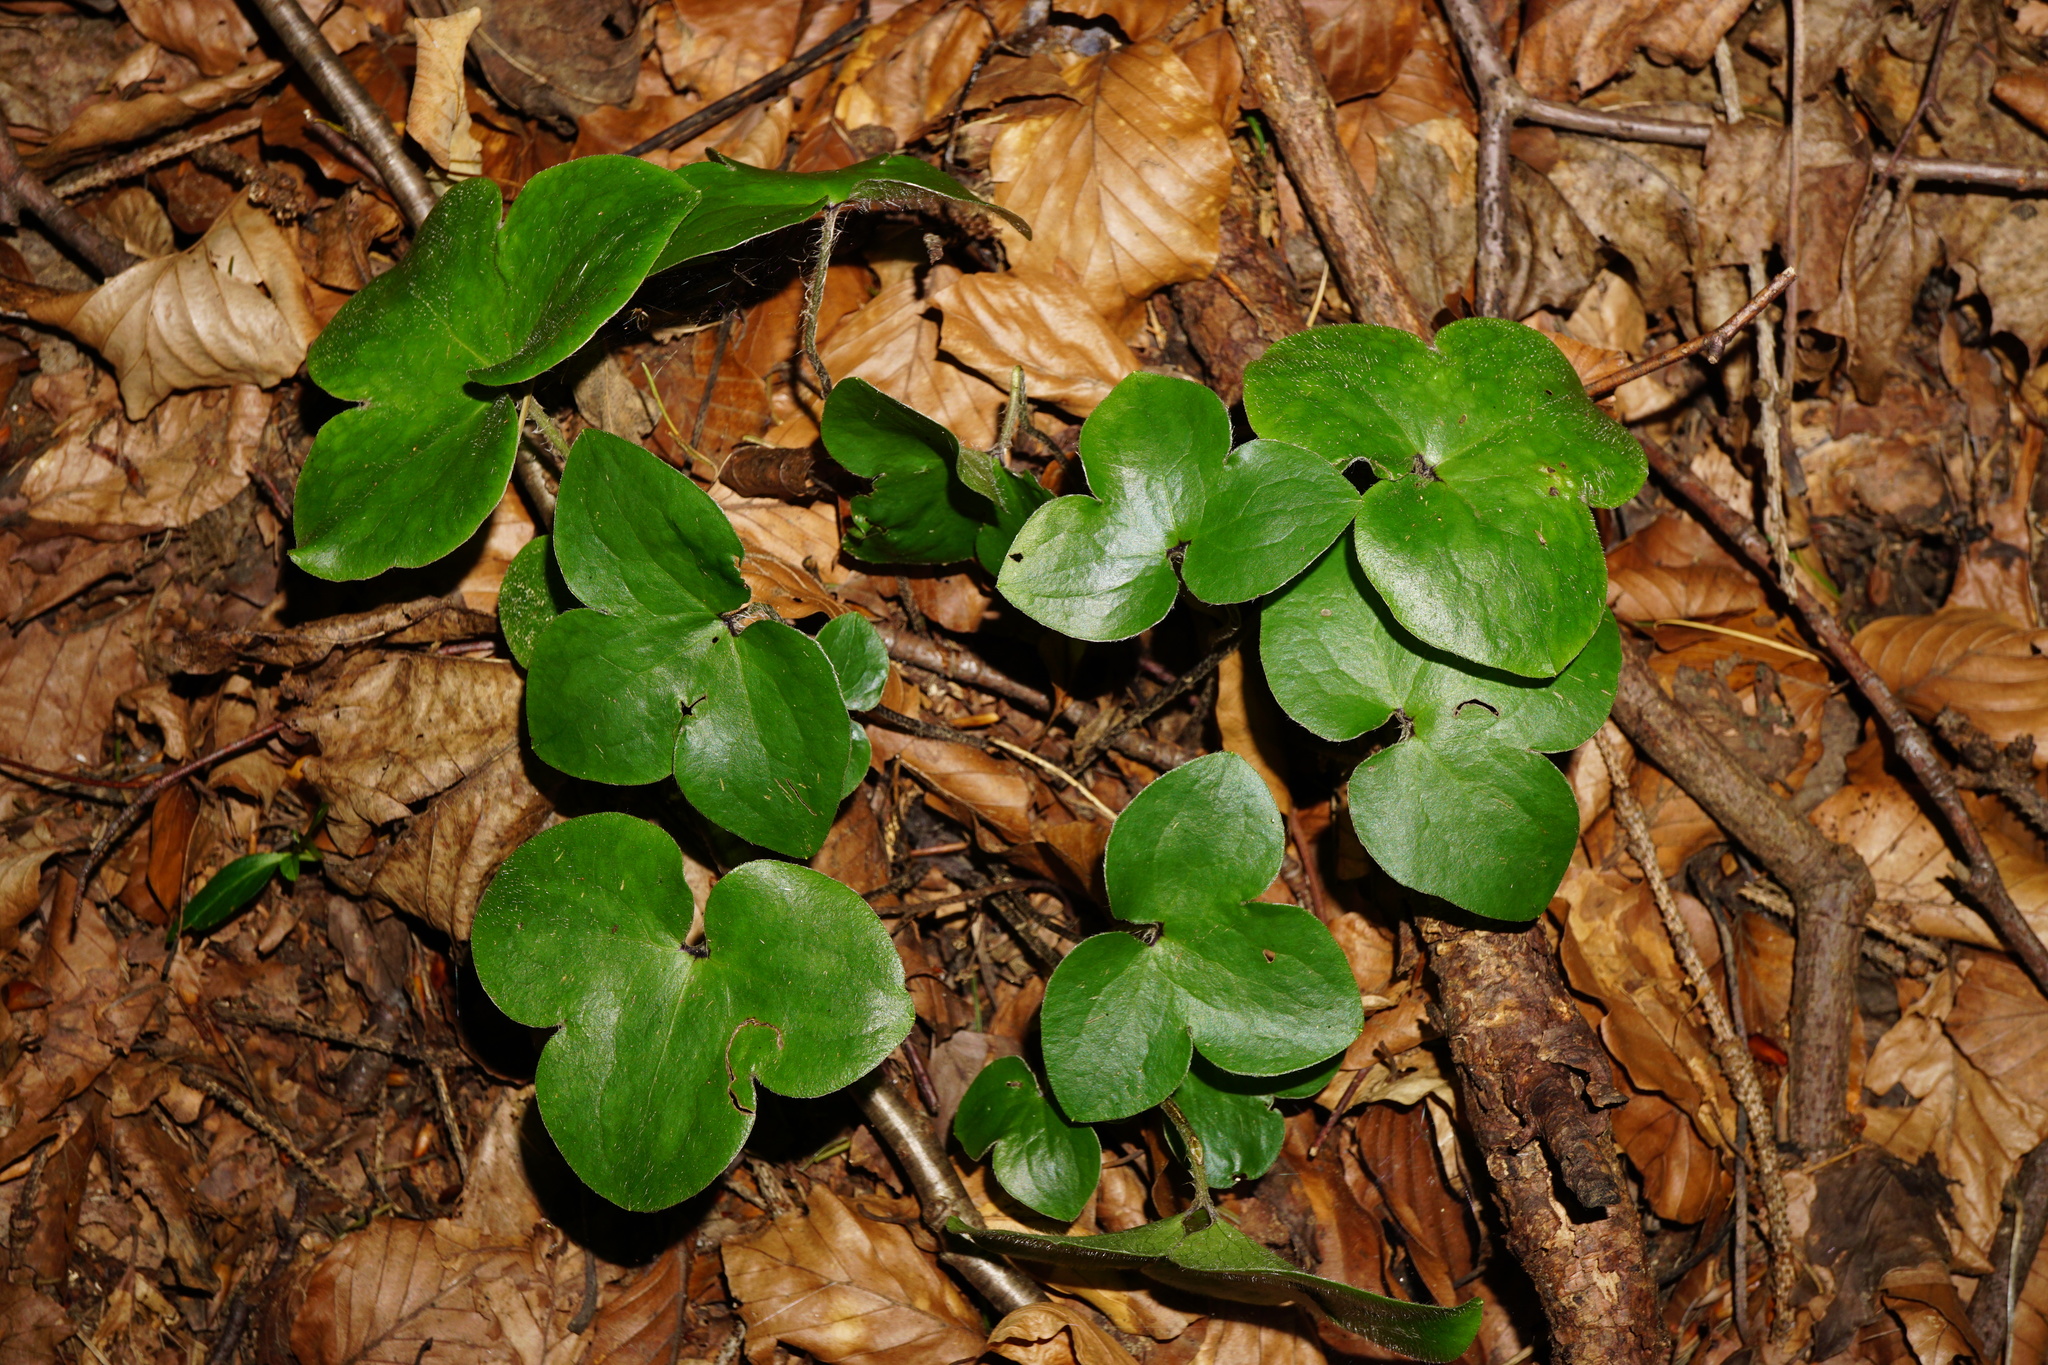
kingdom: Plantae
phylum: Tracheophyta
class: Magnoliopsida
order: Ranunculales
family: Ranunculaceae
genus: Hepatica
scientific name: Hepatica nobilis
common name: Liverleaf
